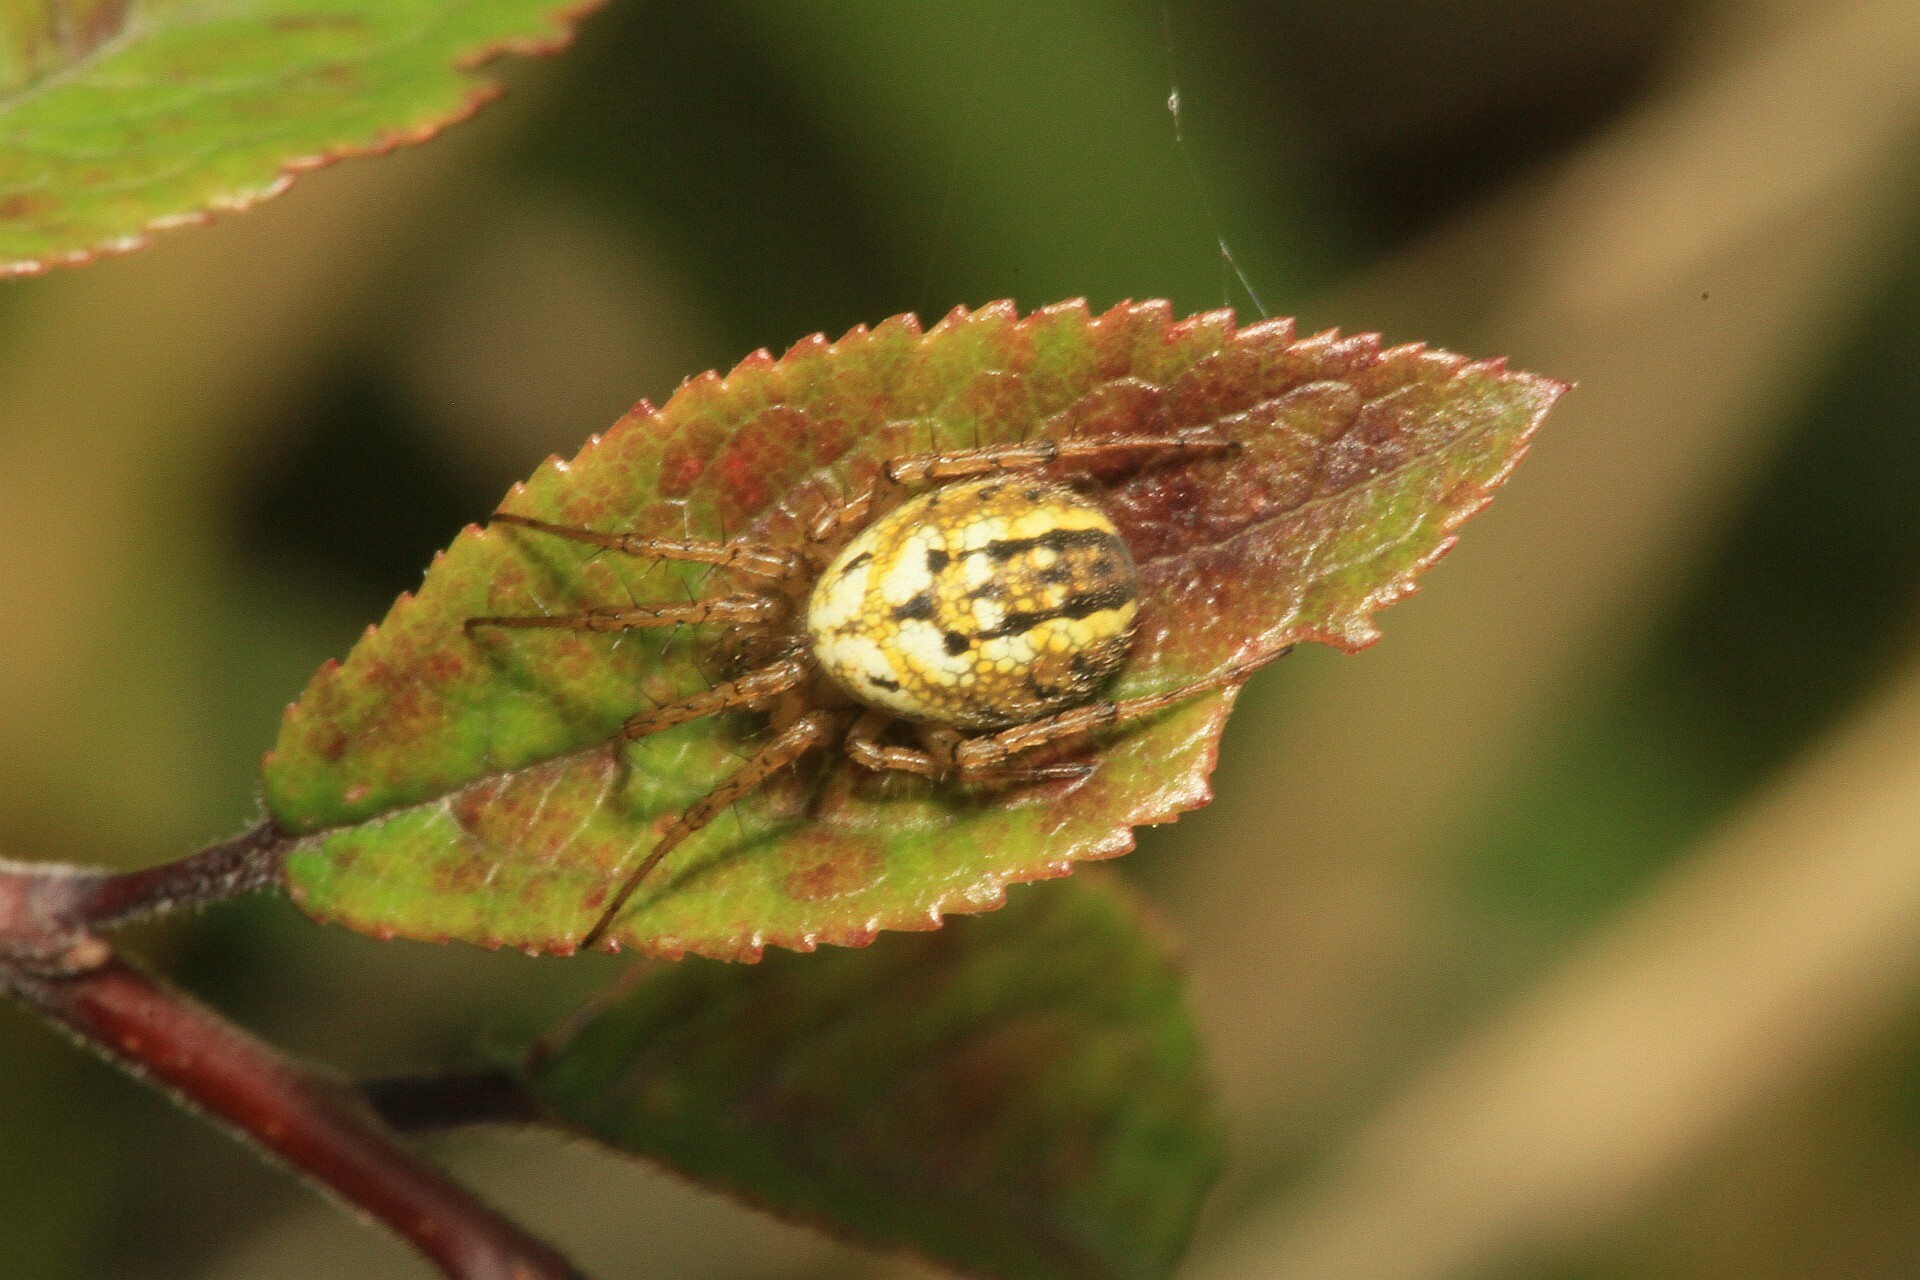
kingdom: Animalia
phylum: Arthropoda
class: Arachnida
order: Araneae
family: Araneidae
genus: Mangora
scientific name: Mangora acalypha
